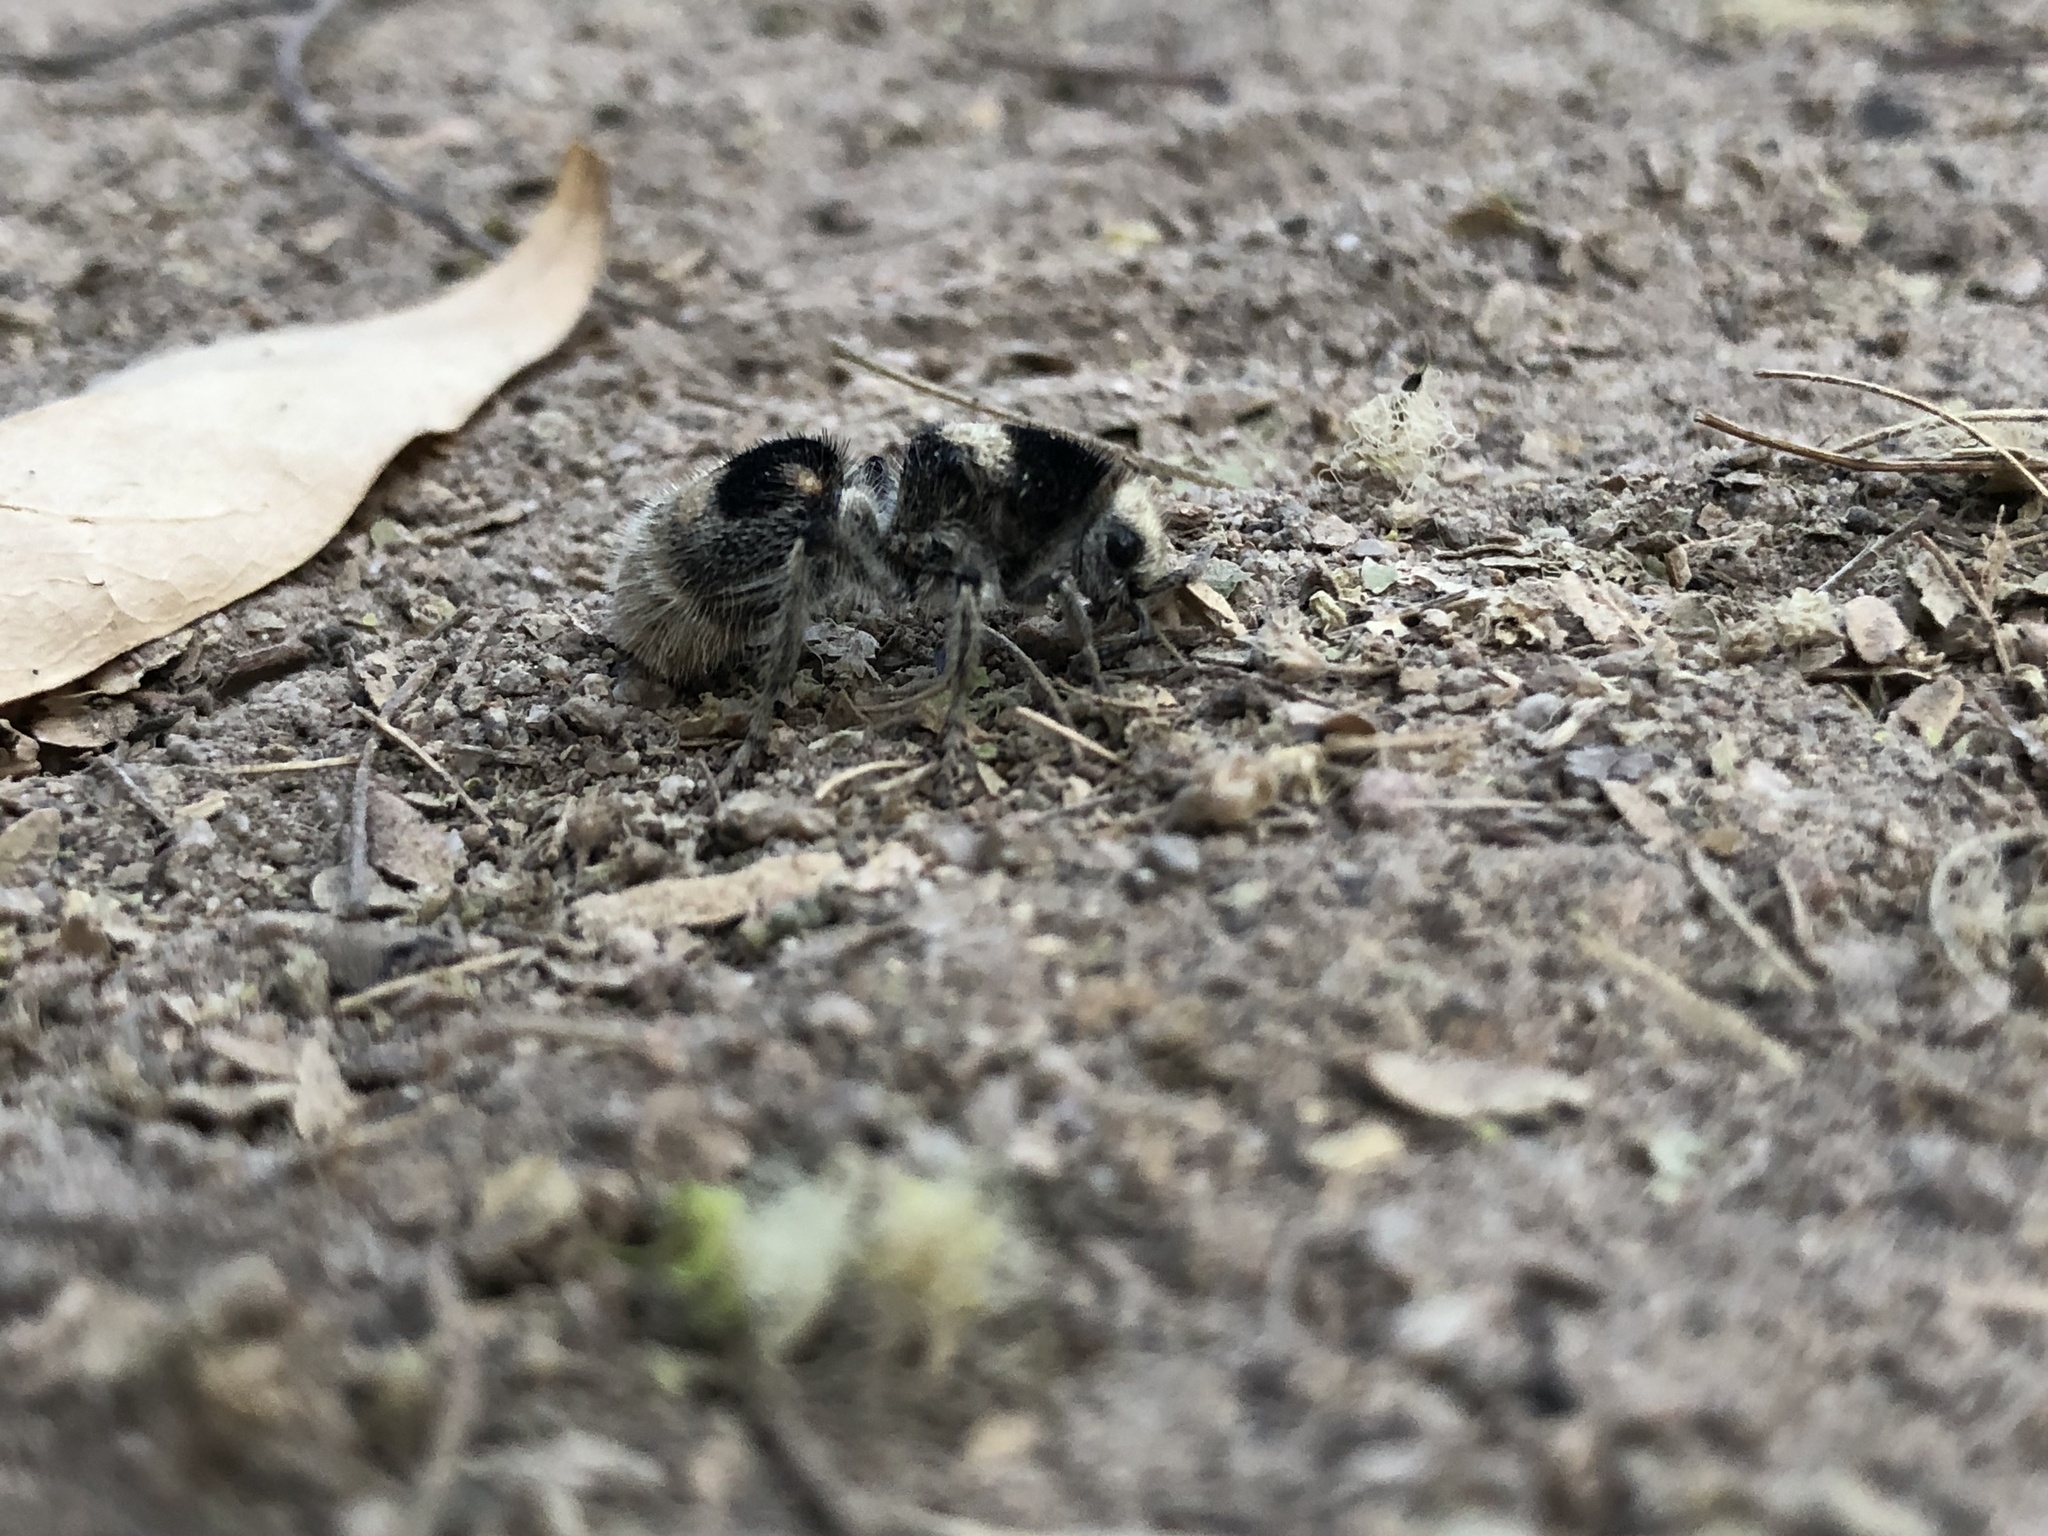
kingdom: Animalia
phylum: Arthropoda
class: Insecta
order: Hymenoptera
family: Mutillidae
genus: Dasymutilla
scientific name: Dasymutilla pulchra
